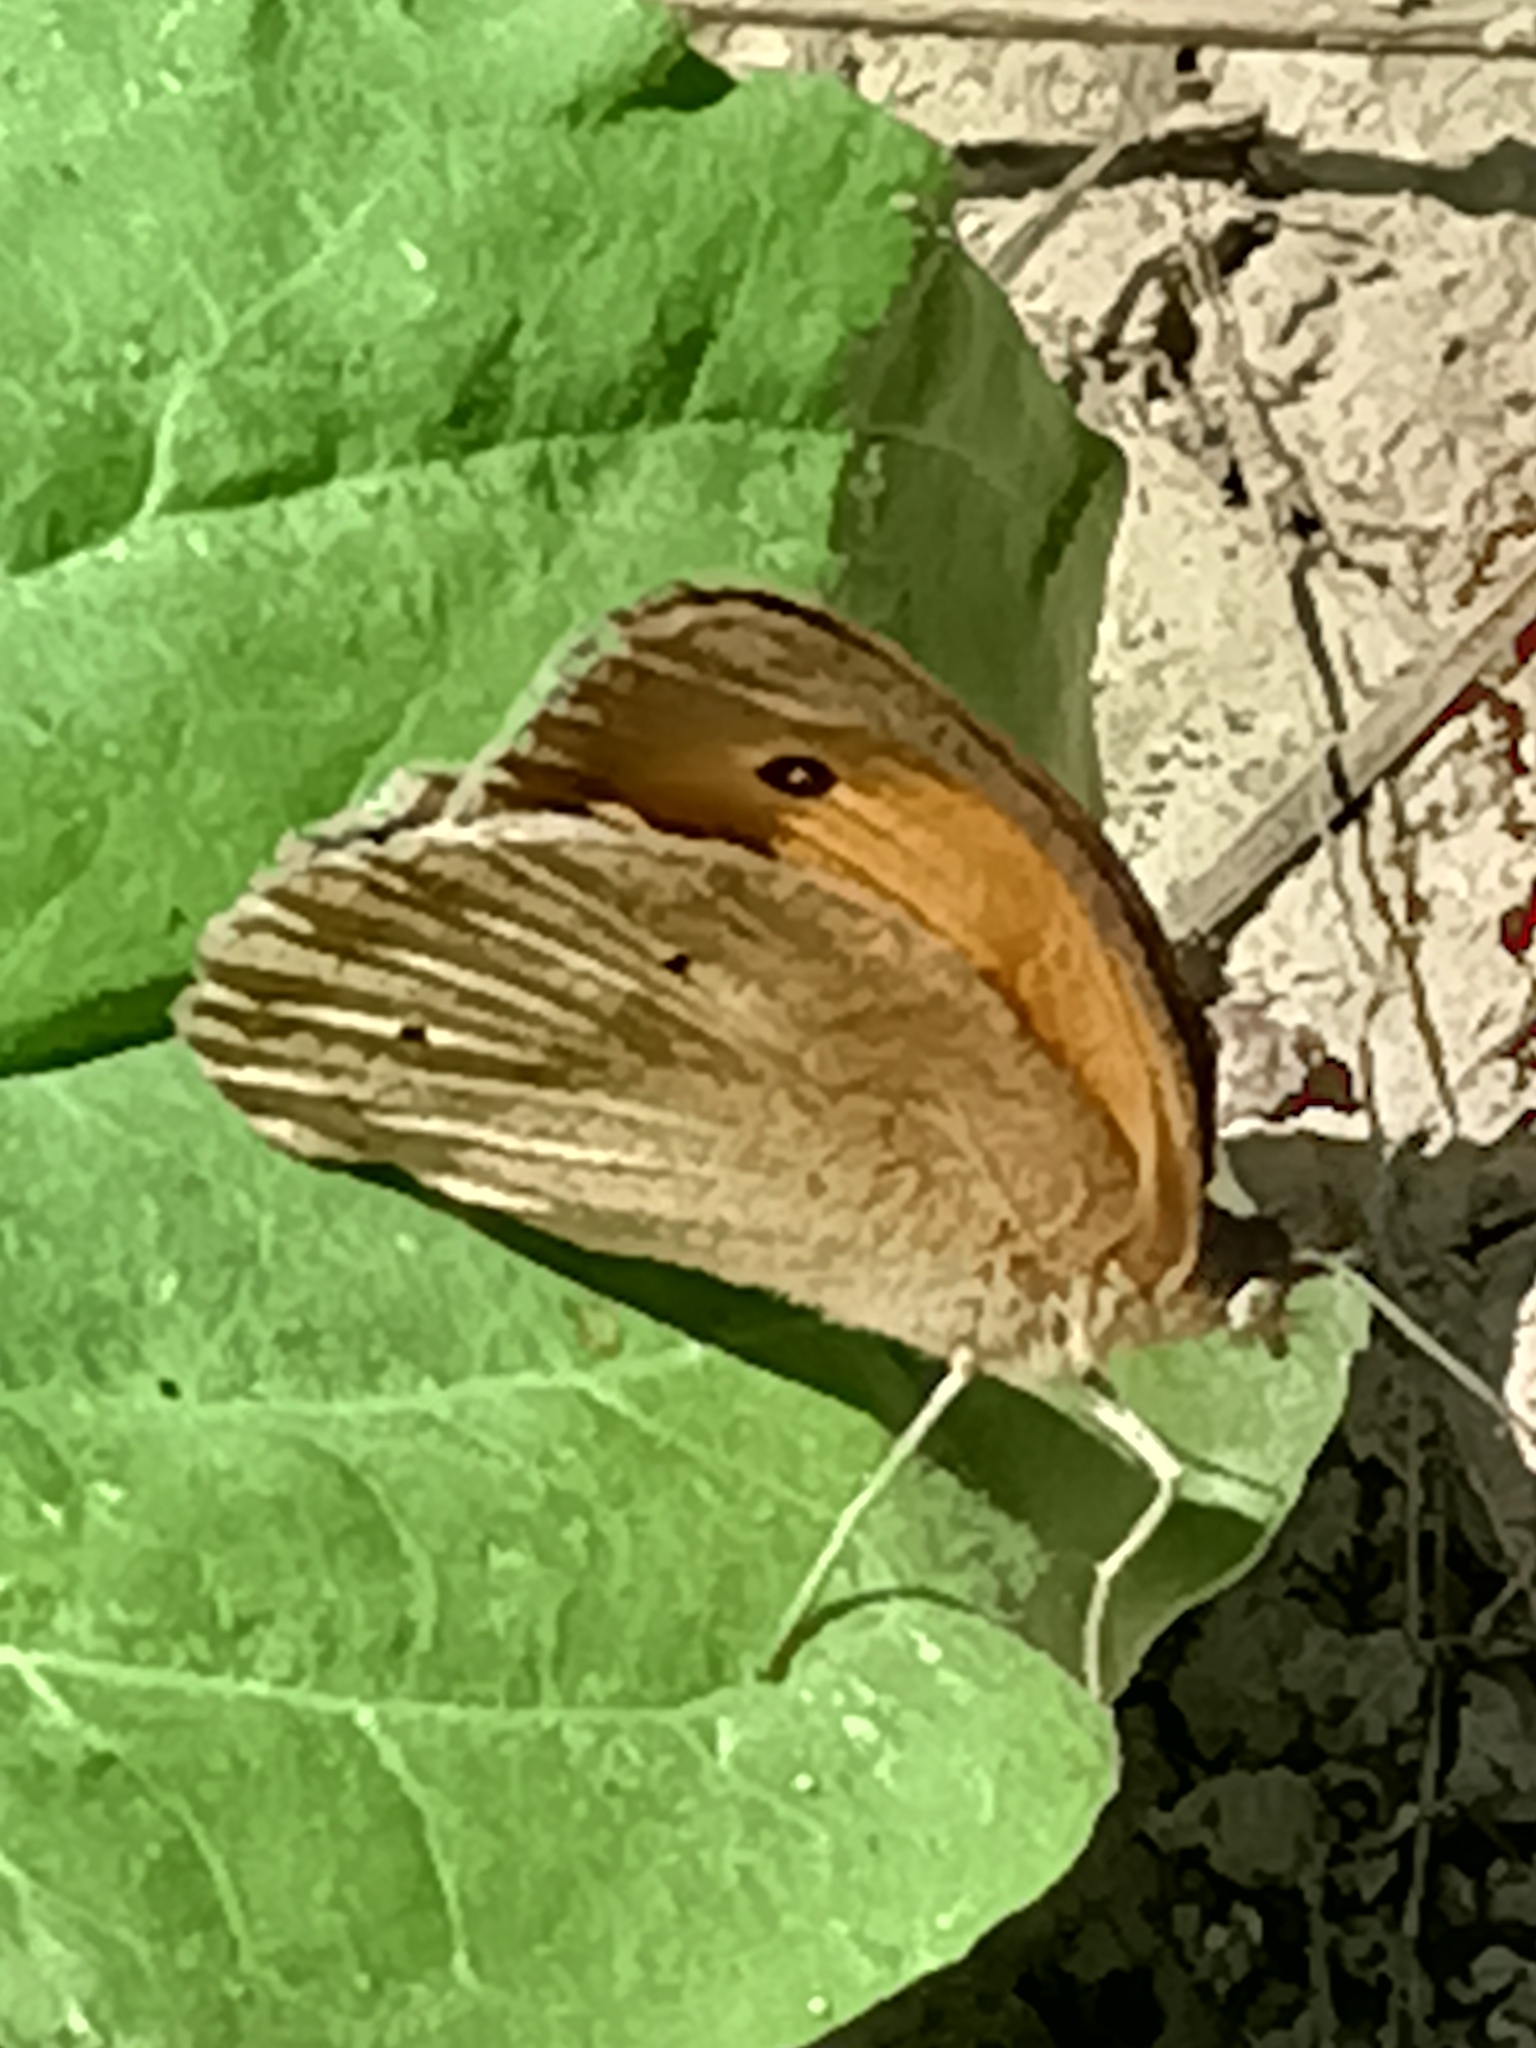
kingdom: Animalia
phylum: Arthropoda
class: Insecta
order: Lepidoptera
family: Nymphalidae
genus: Maniola
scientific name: Maniola jurtina
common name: Meadow brown
